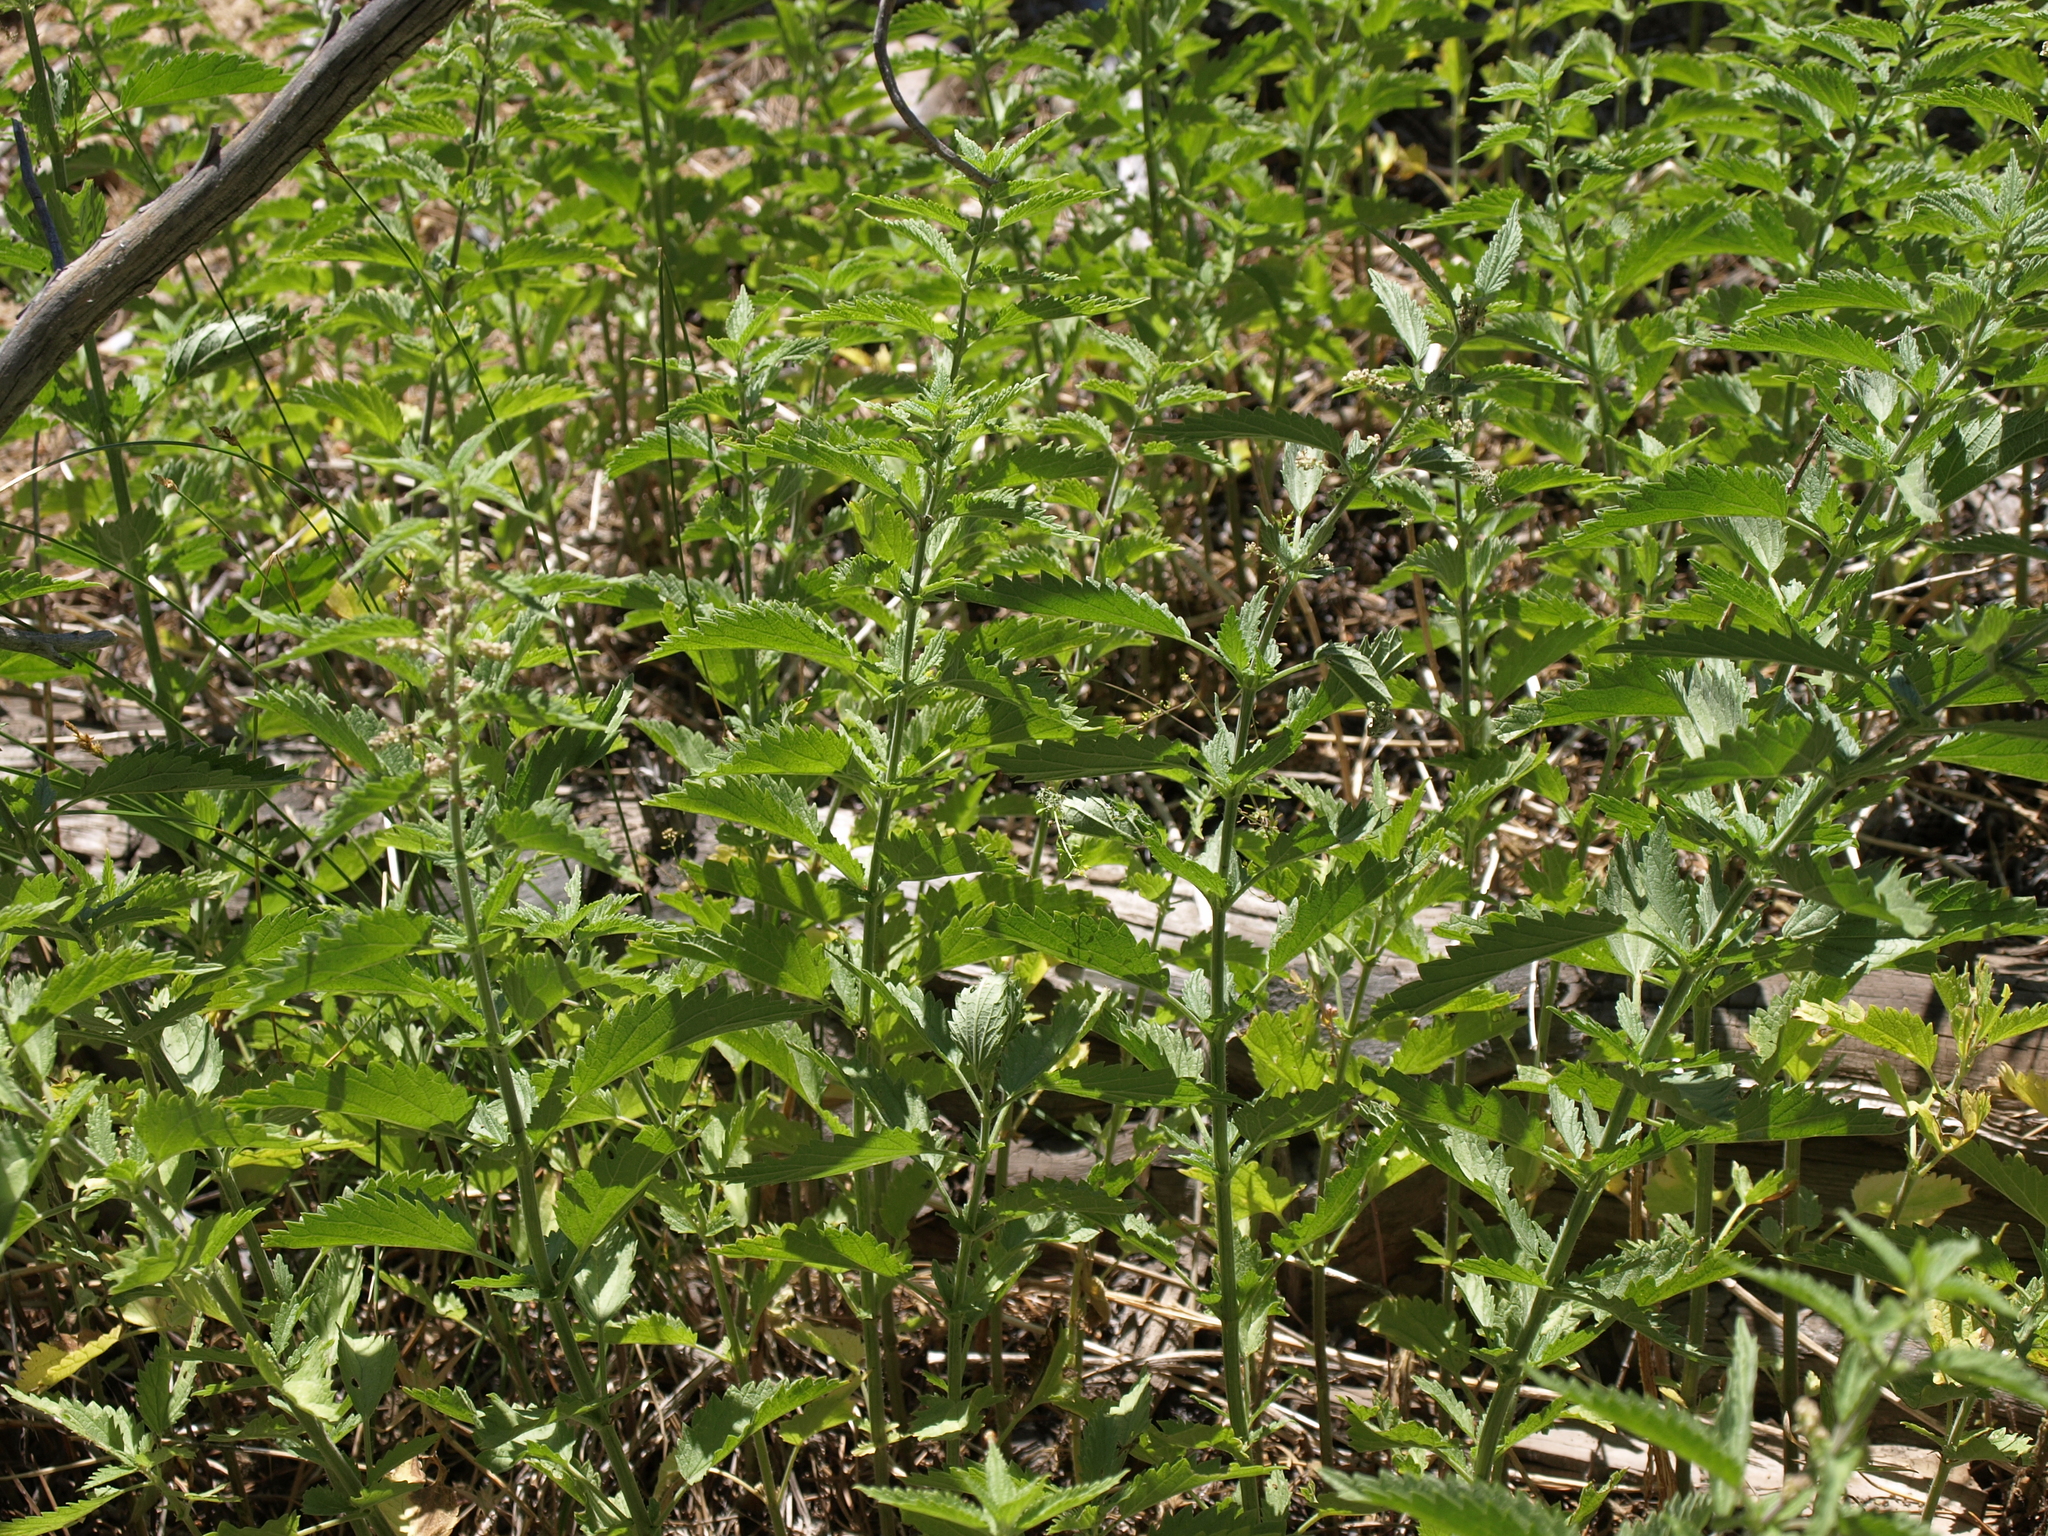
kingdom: Plantae
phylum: Tracheophyta
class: Magnoliopsida
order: Rosales
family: Urticaceae
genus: Urtica
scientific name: Urtica gracilis
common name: Slender stinging nettle
